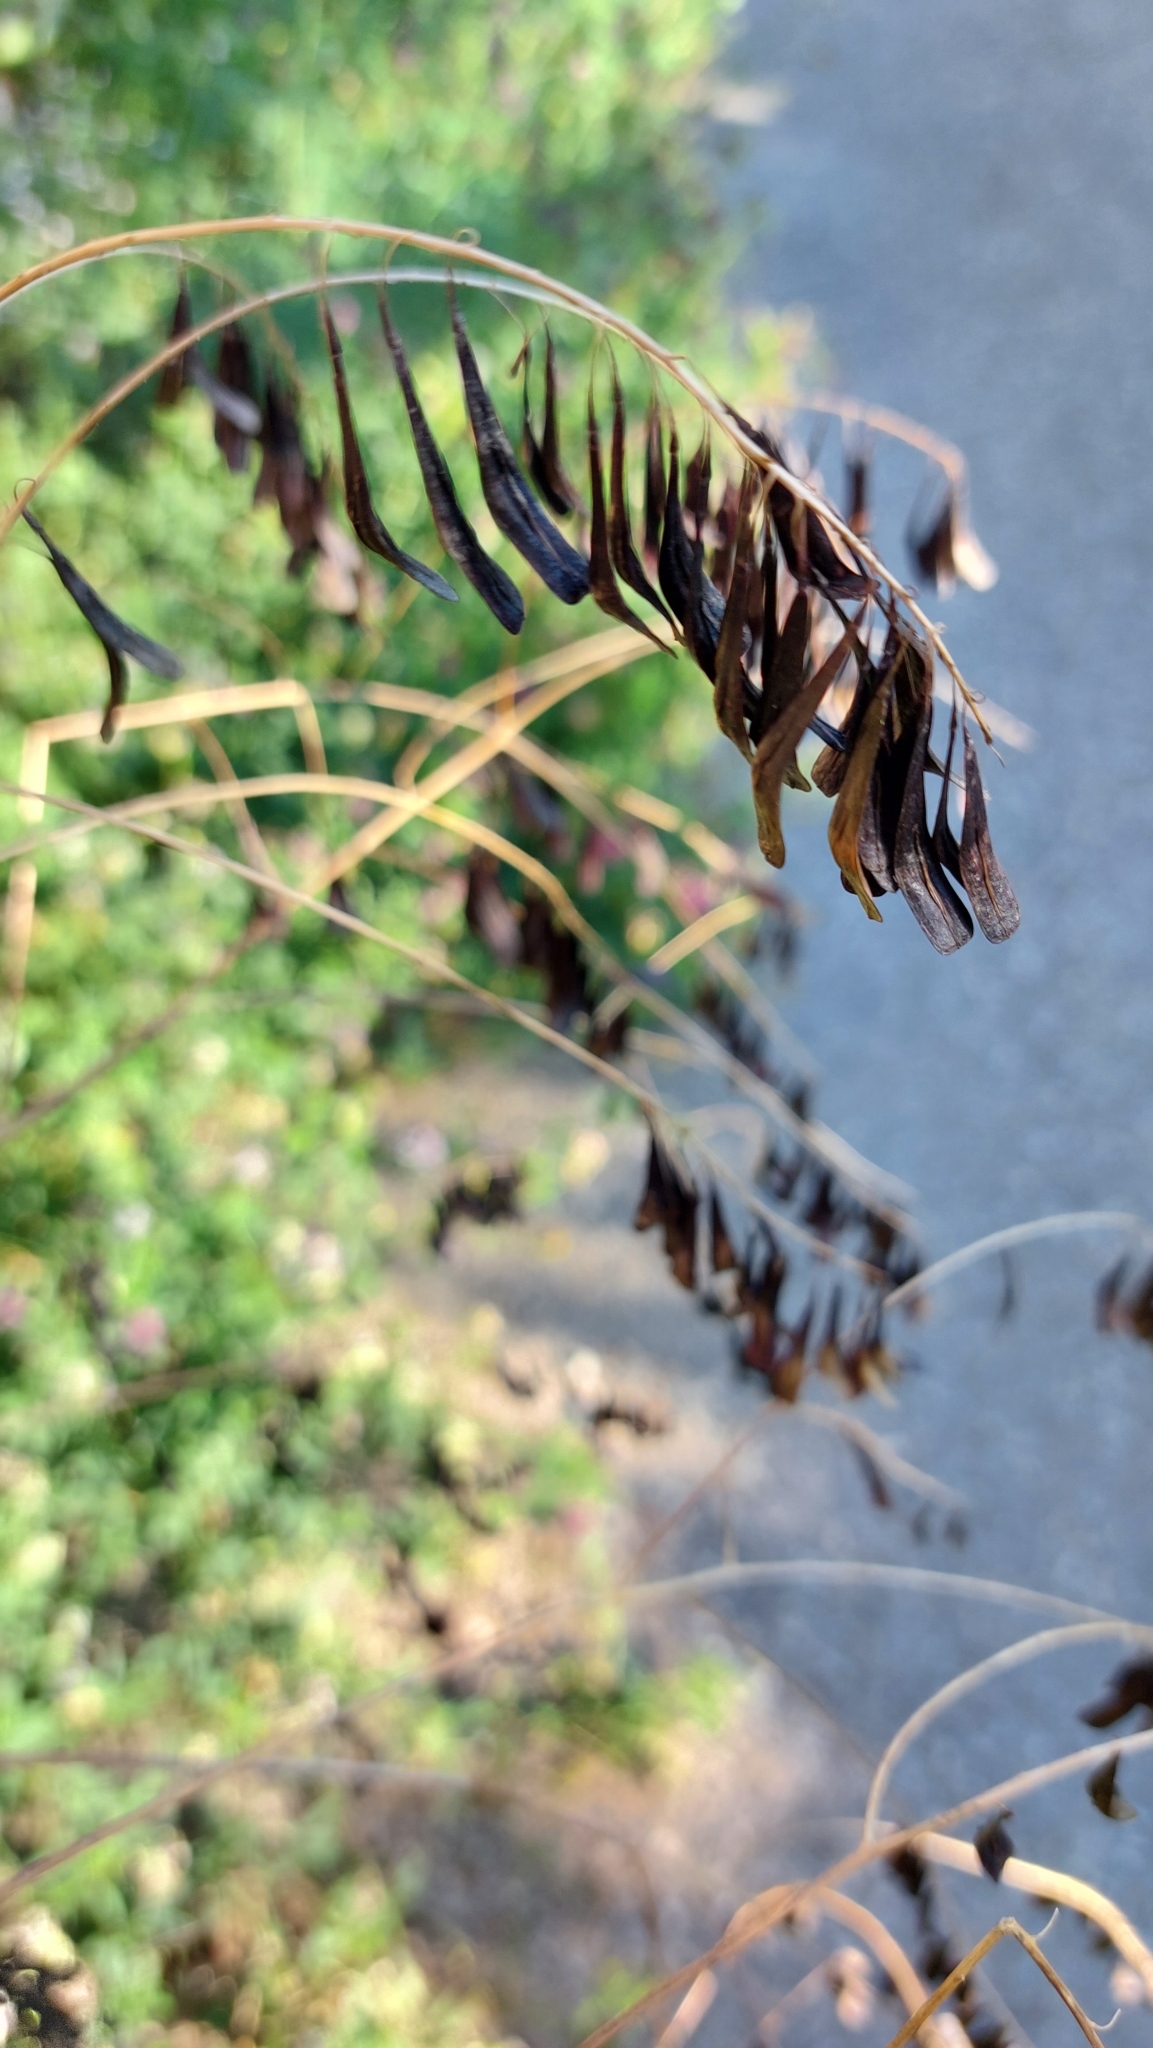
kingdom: Plantae
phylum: Tracheophyta
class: Magnoliopsida
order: Brassicales
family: Brassicaceae
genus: Isatis
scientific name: Isatis tinctoria
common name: Woad
